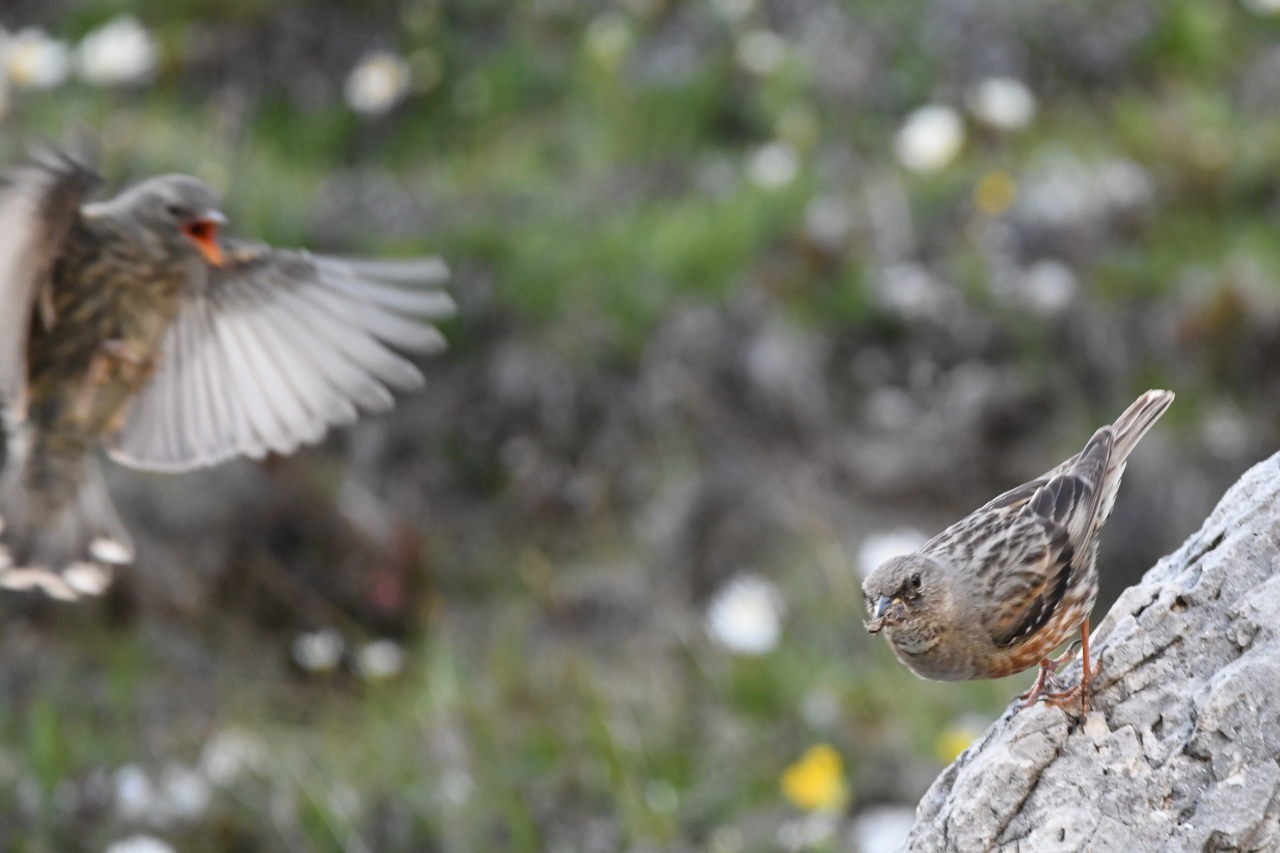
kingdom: Animalia
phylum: Chordata
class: Aves
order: Passeriformes
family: Prunellidae
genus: Prunella
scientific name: Prunella collaris
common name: Alpine accentor
